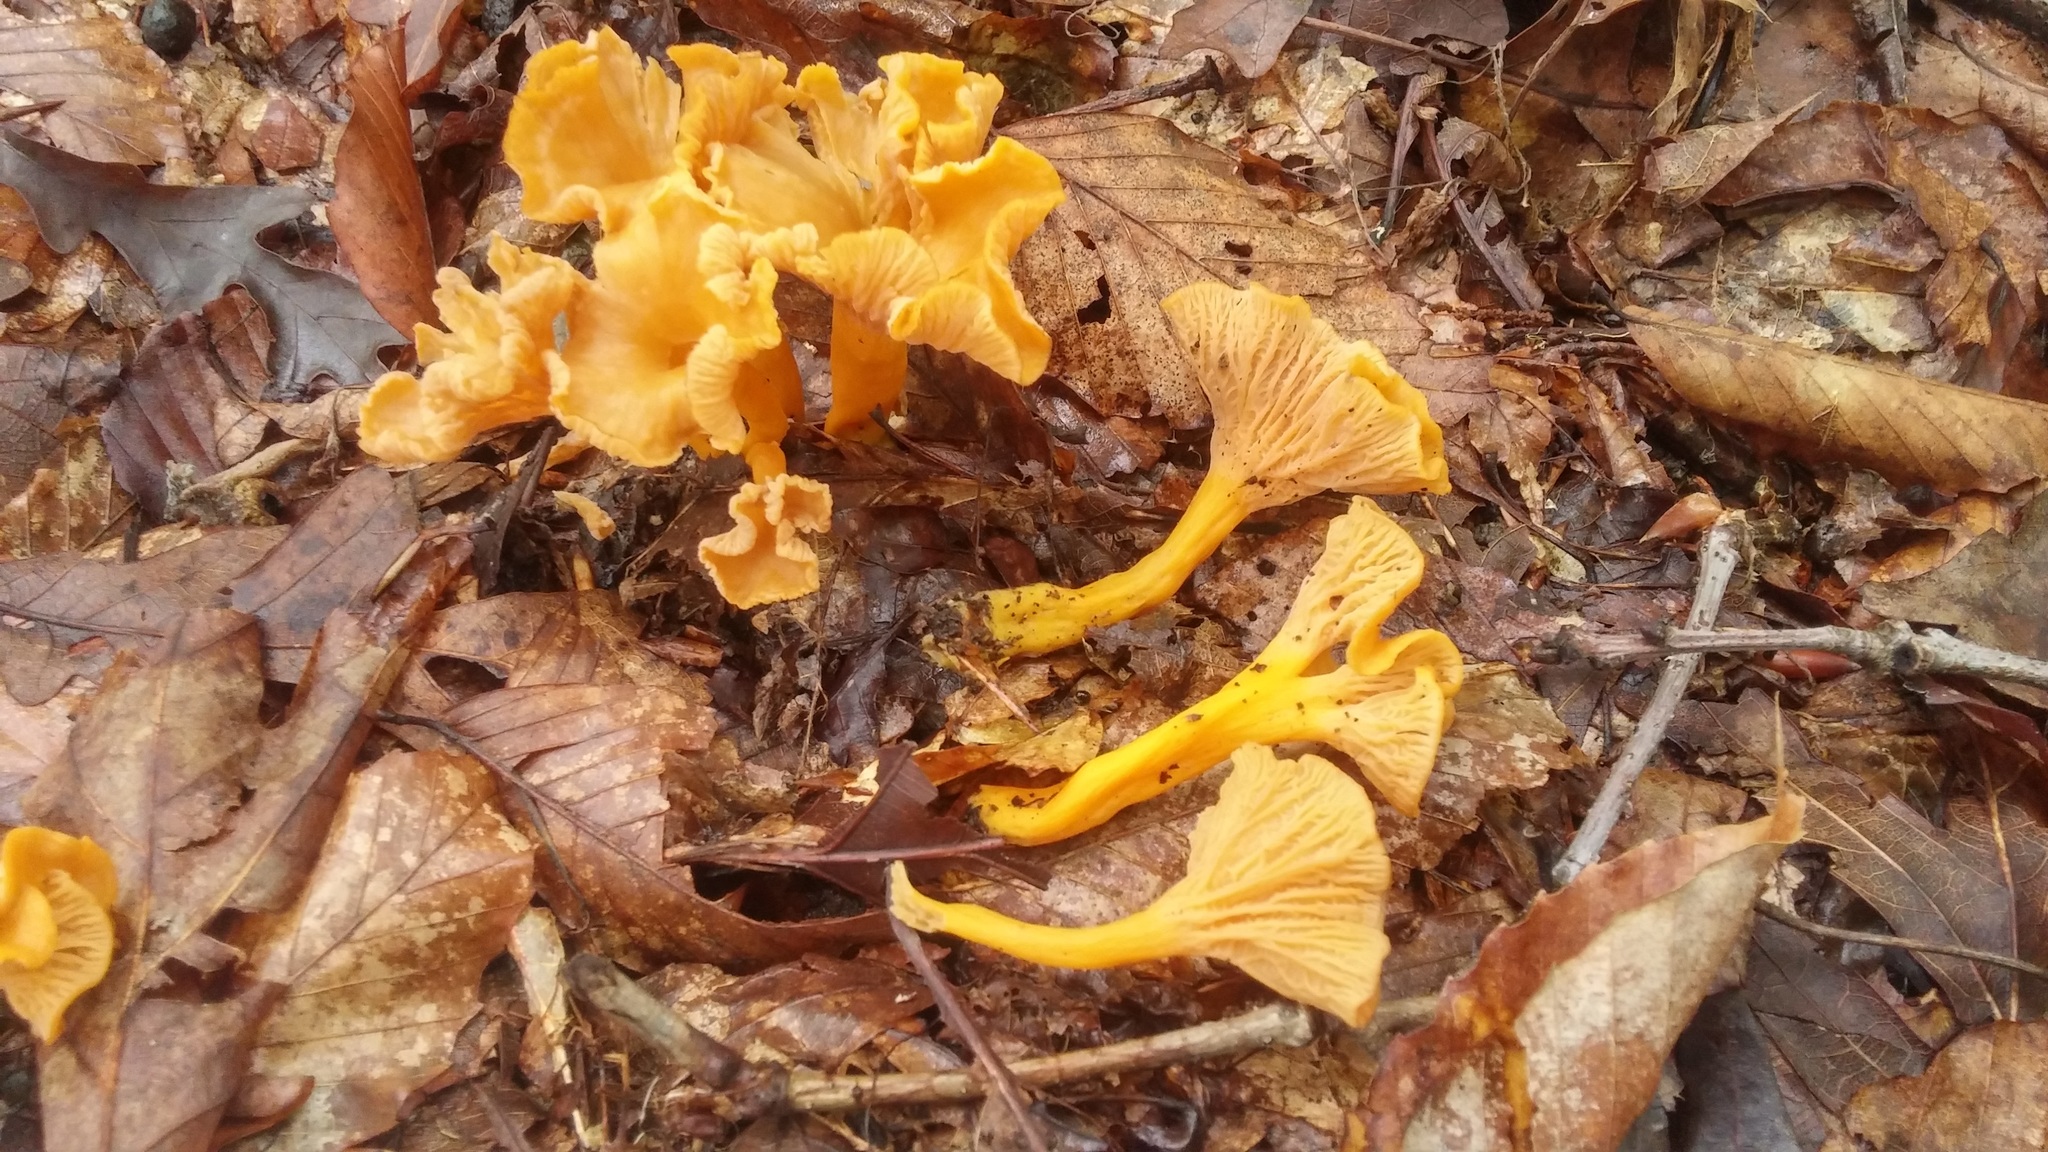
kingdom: Fungi
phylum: Basidiomycota
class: Agaricomycetes
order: Cantharellales
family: Hydnaceae
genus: Craterellus
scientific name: Craterellus ignicolor
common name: Flame chanterelle
